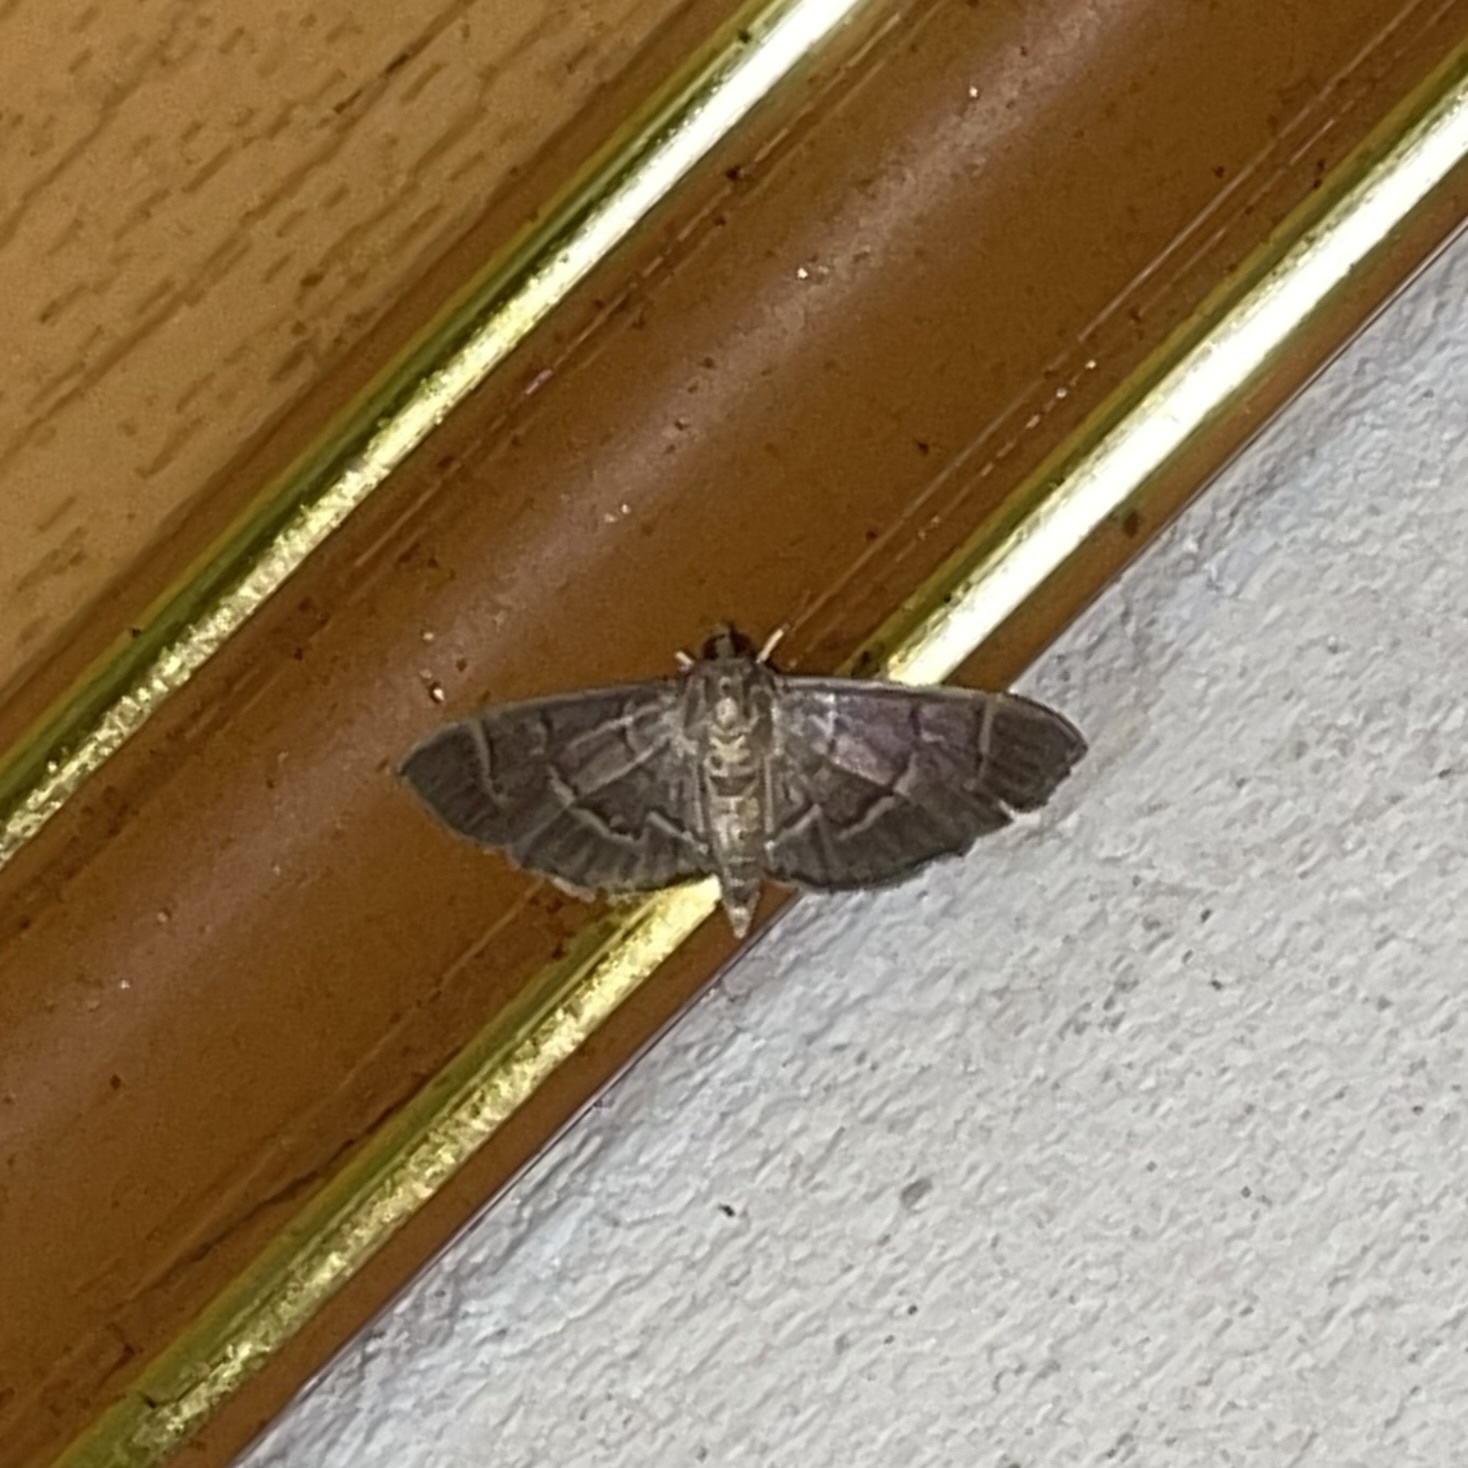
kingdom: Animalia
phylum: Arthropoda
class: Insecta
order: Lepidoptera
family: Crambidae
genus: Herpetogramma
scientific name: Herpetogramma semilaniata
